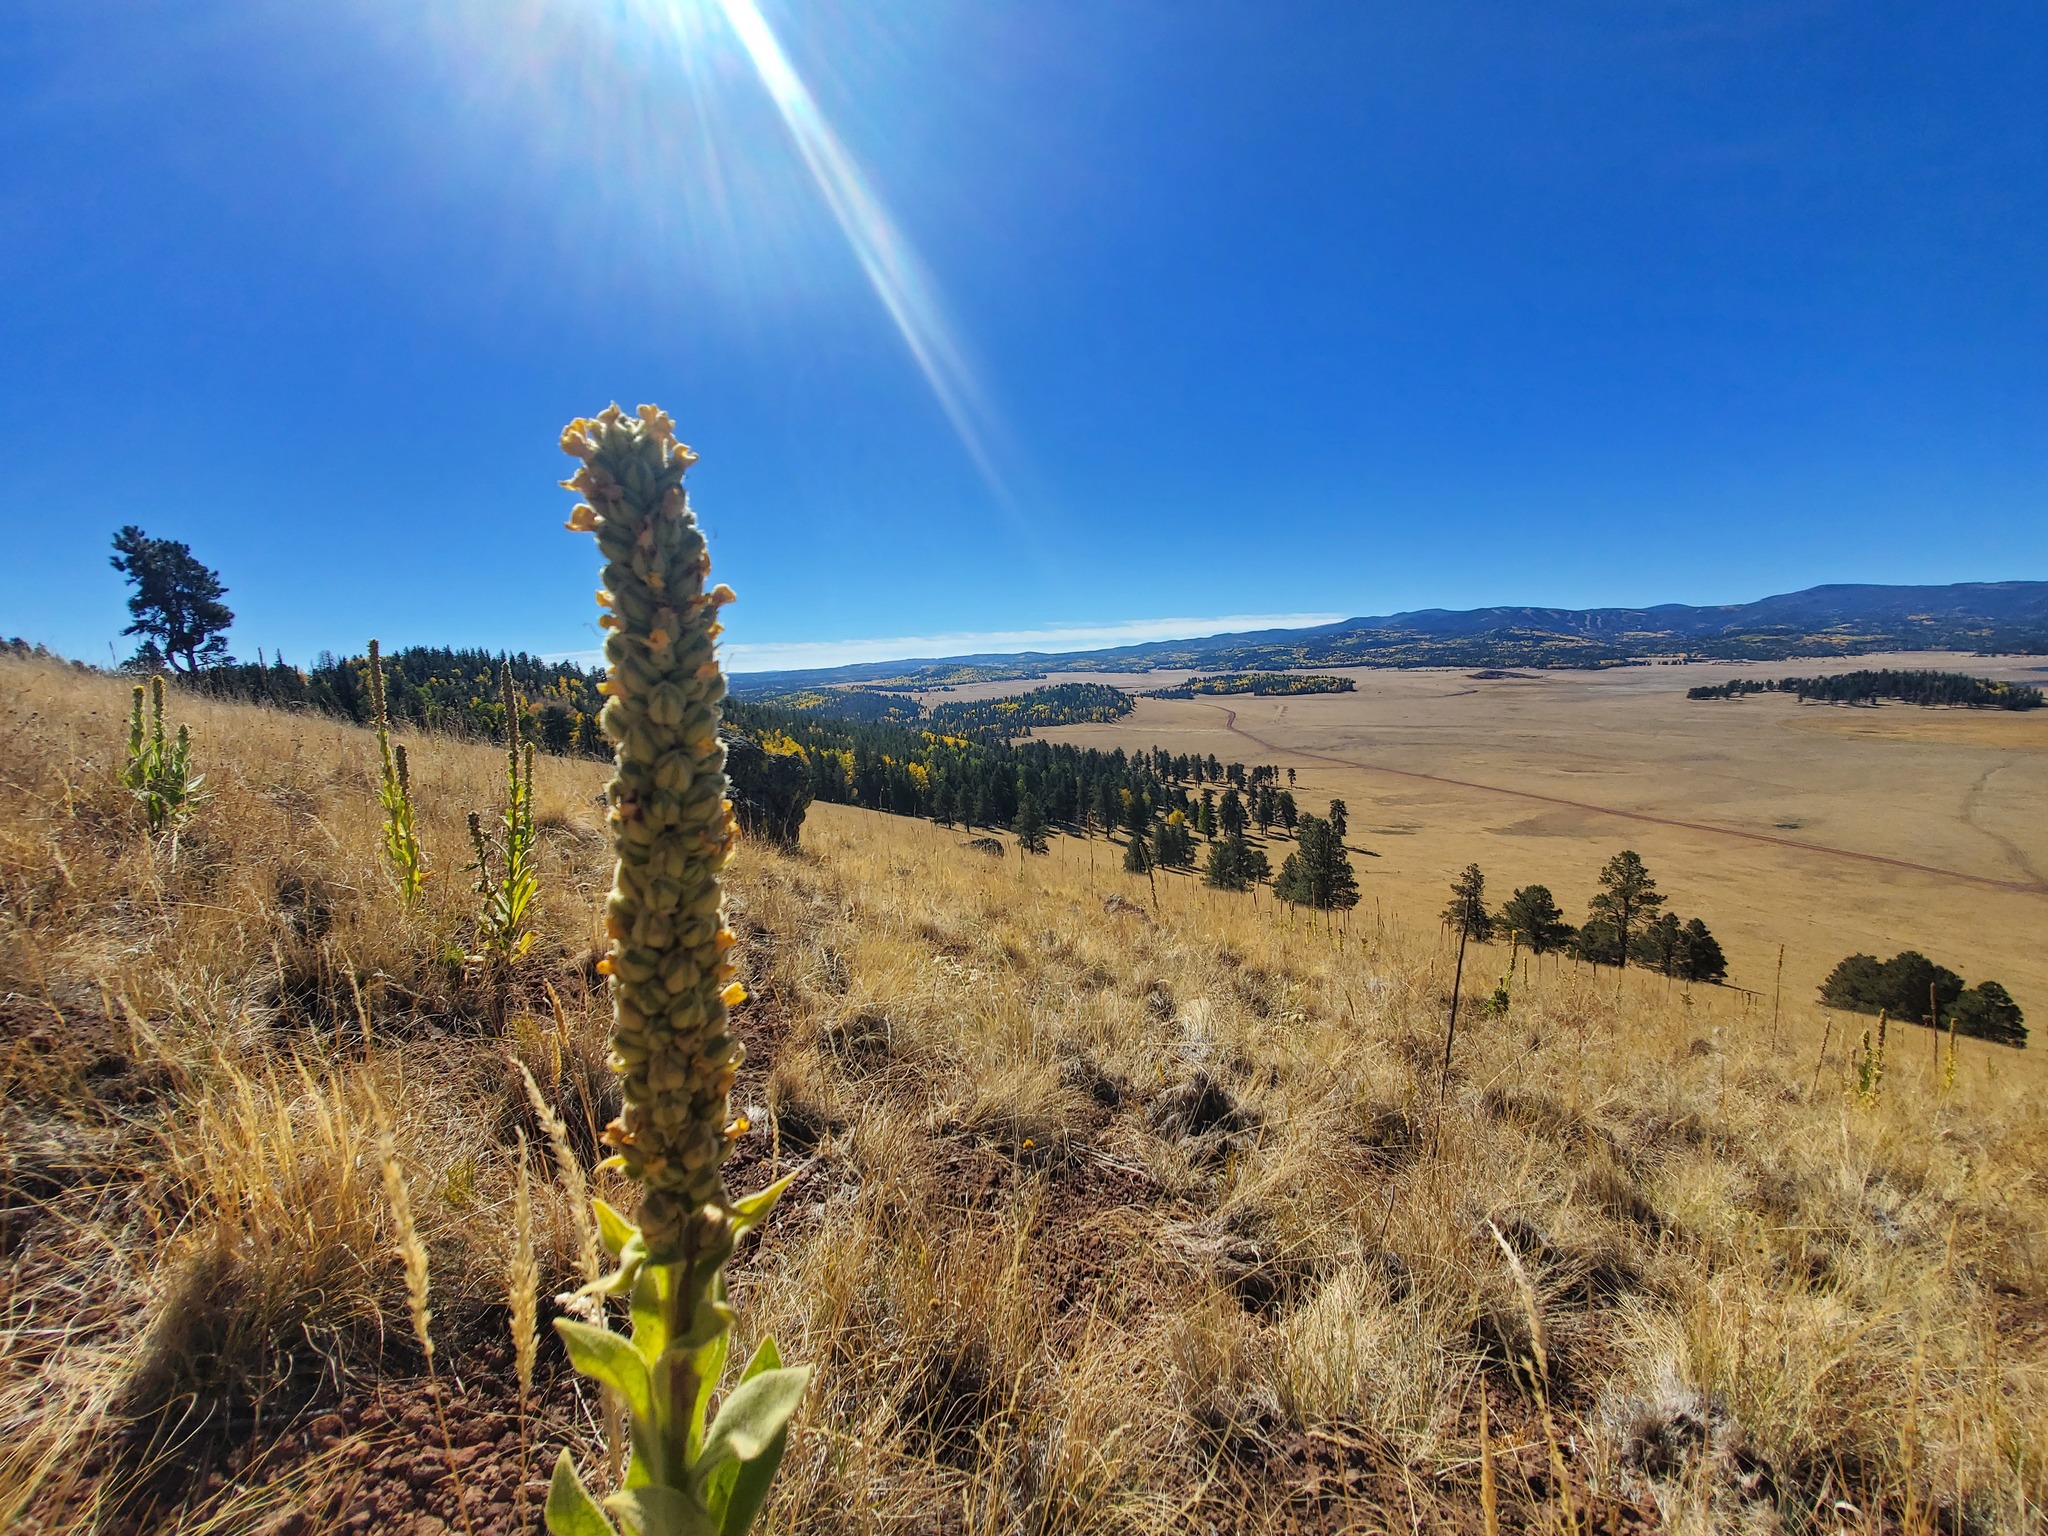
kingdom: Plantae
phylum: Tracheophyta
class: Magnoliopsida
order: Lamiales
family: Scrophulariaceae
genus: Verbascum
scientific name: Verbascum thapsus
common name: Common mullein
